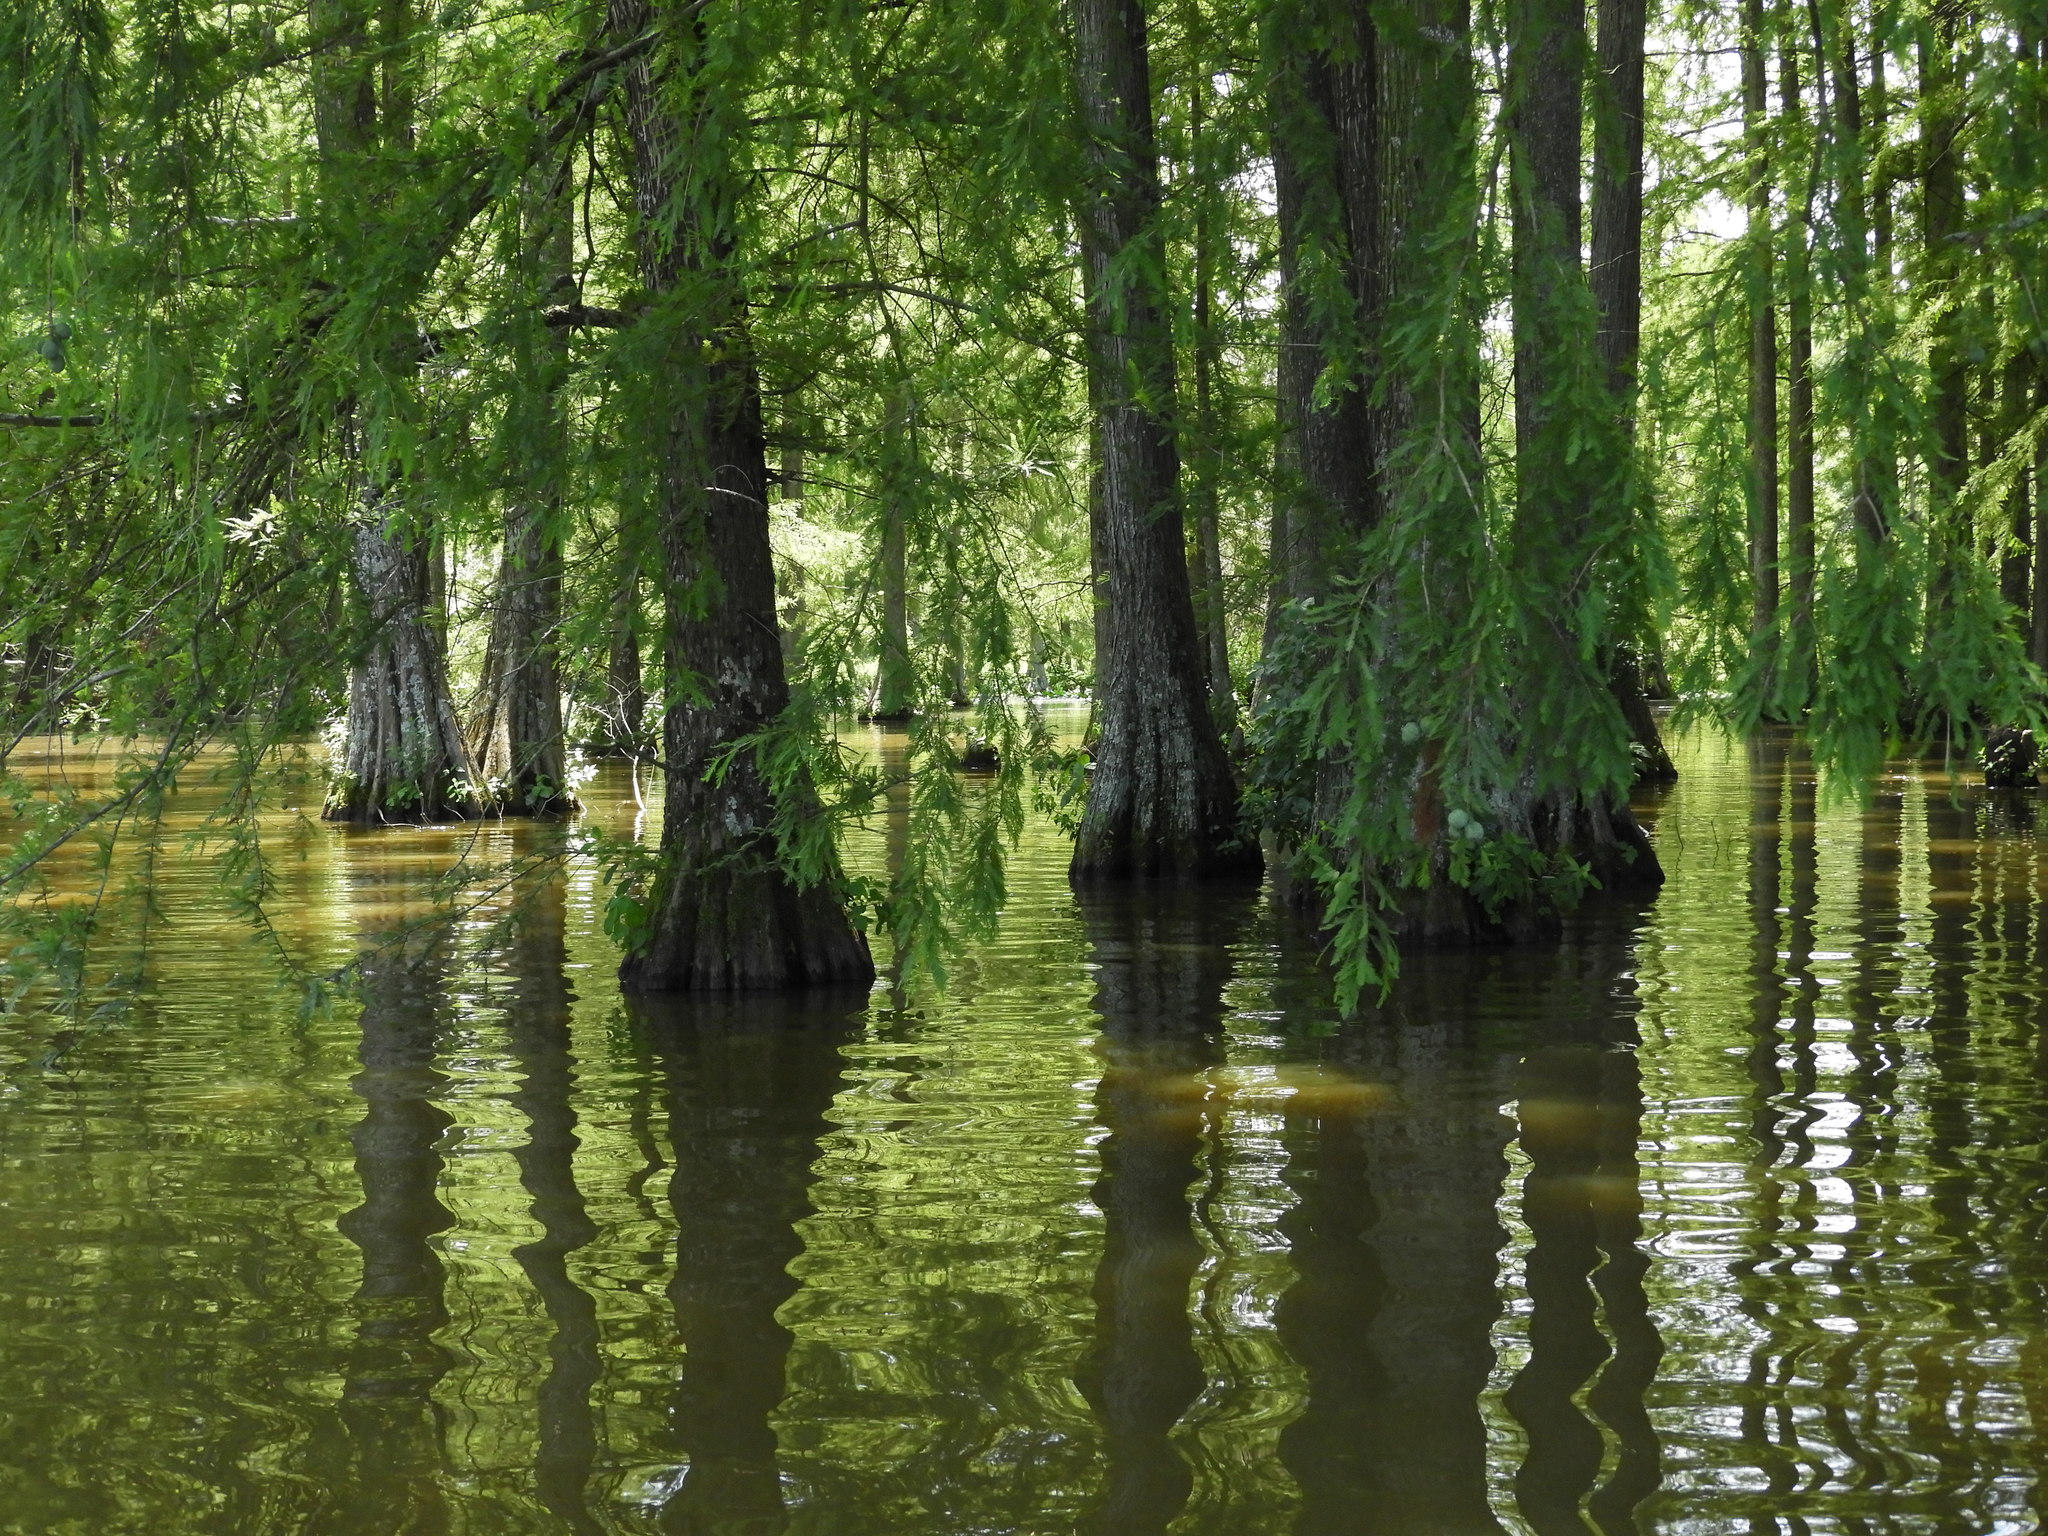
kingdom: Plantae
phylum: Tracheophyta
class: Pinopsida
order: Pinales
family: Cupressaceae
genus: Taxodium
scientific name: Taxodium distichum
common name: Bald cypress
